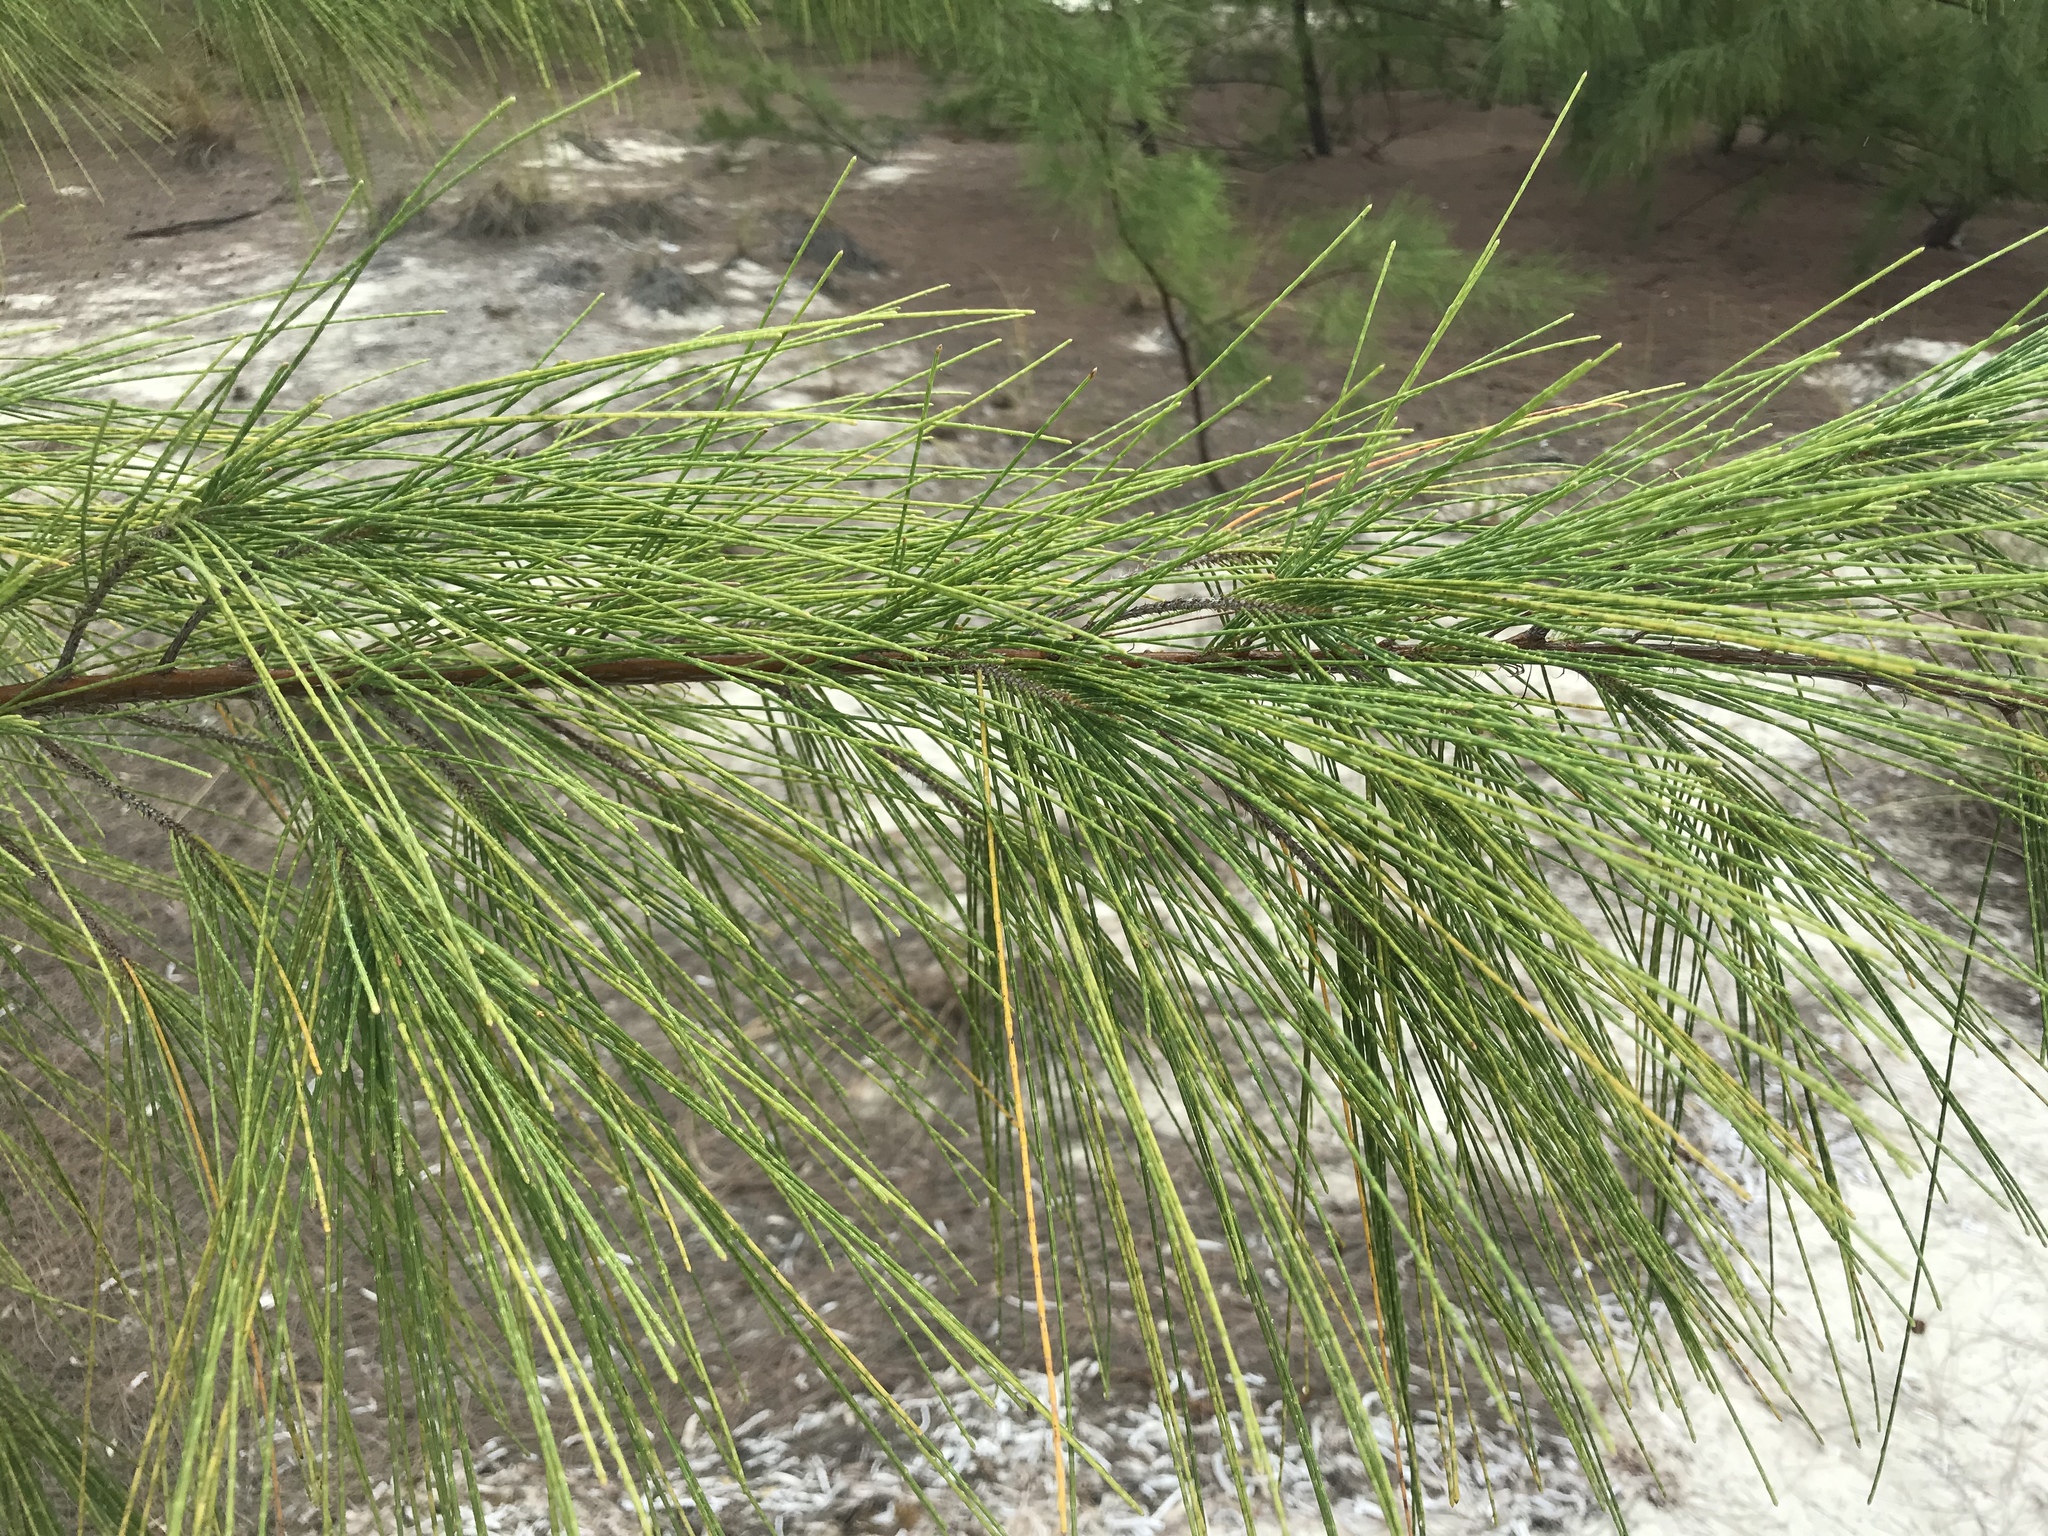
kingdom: Plantae
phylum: Tracheophyta
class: Magnoliopsida
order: Fagales
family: Casuarinaceae
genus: Casuarina
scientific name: Casuarina equisetifolia
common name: Beach sheoak
